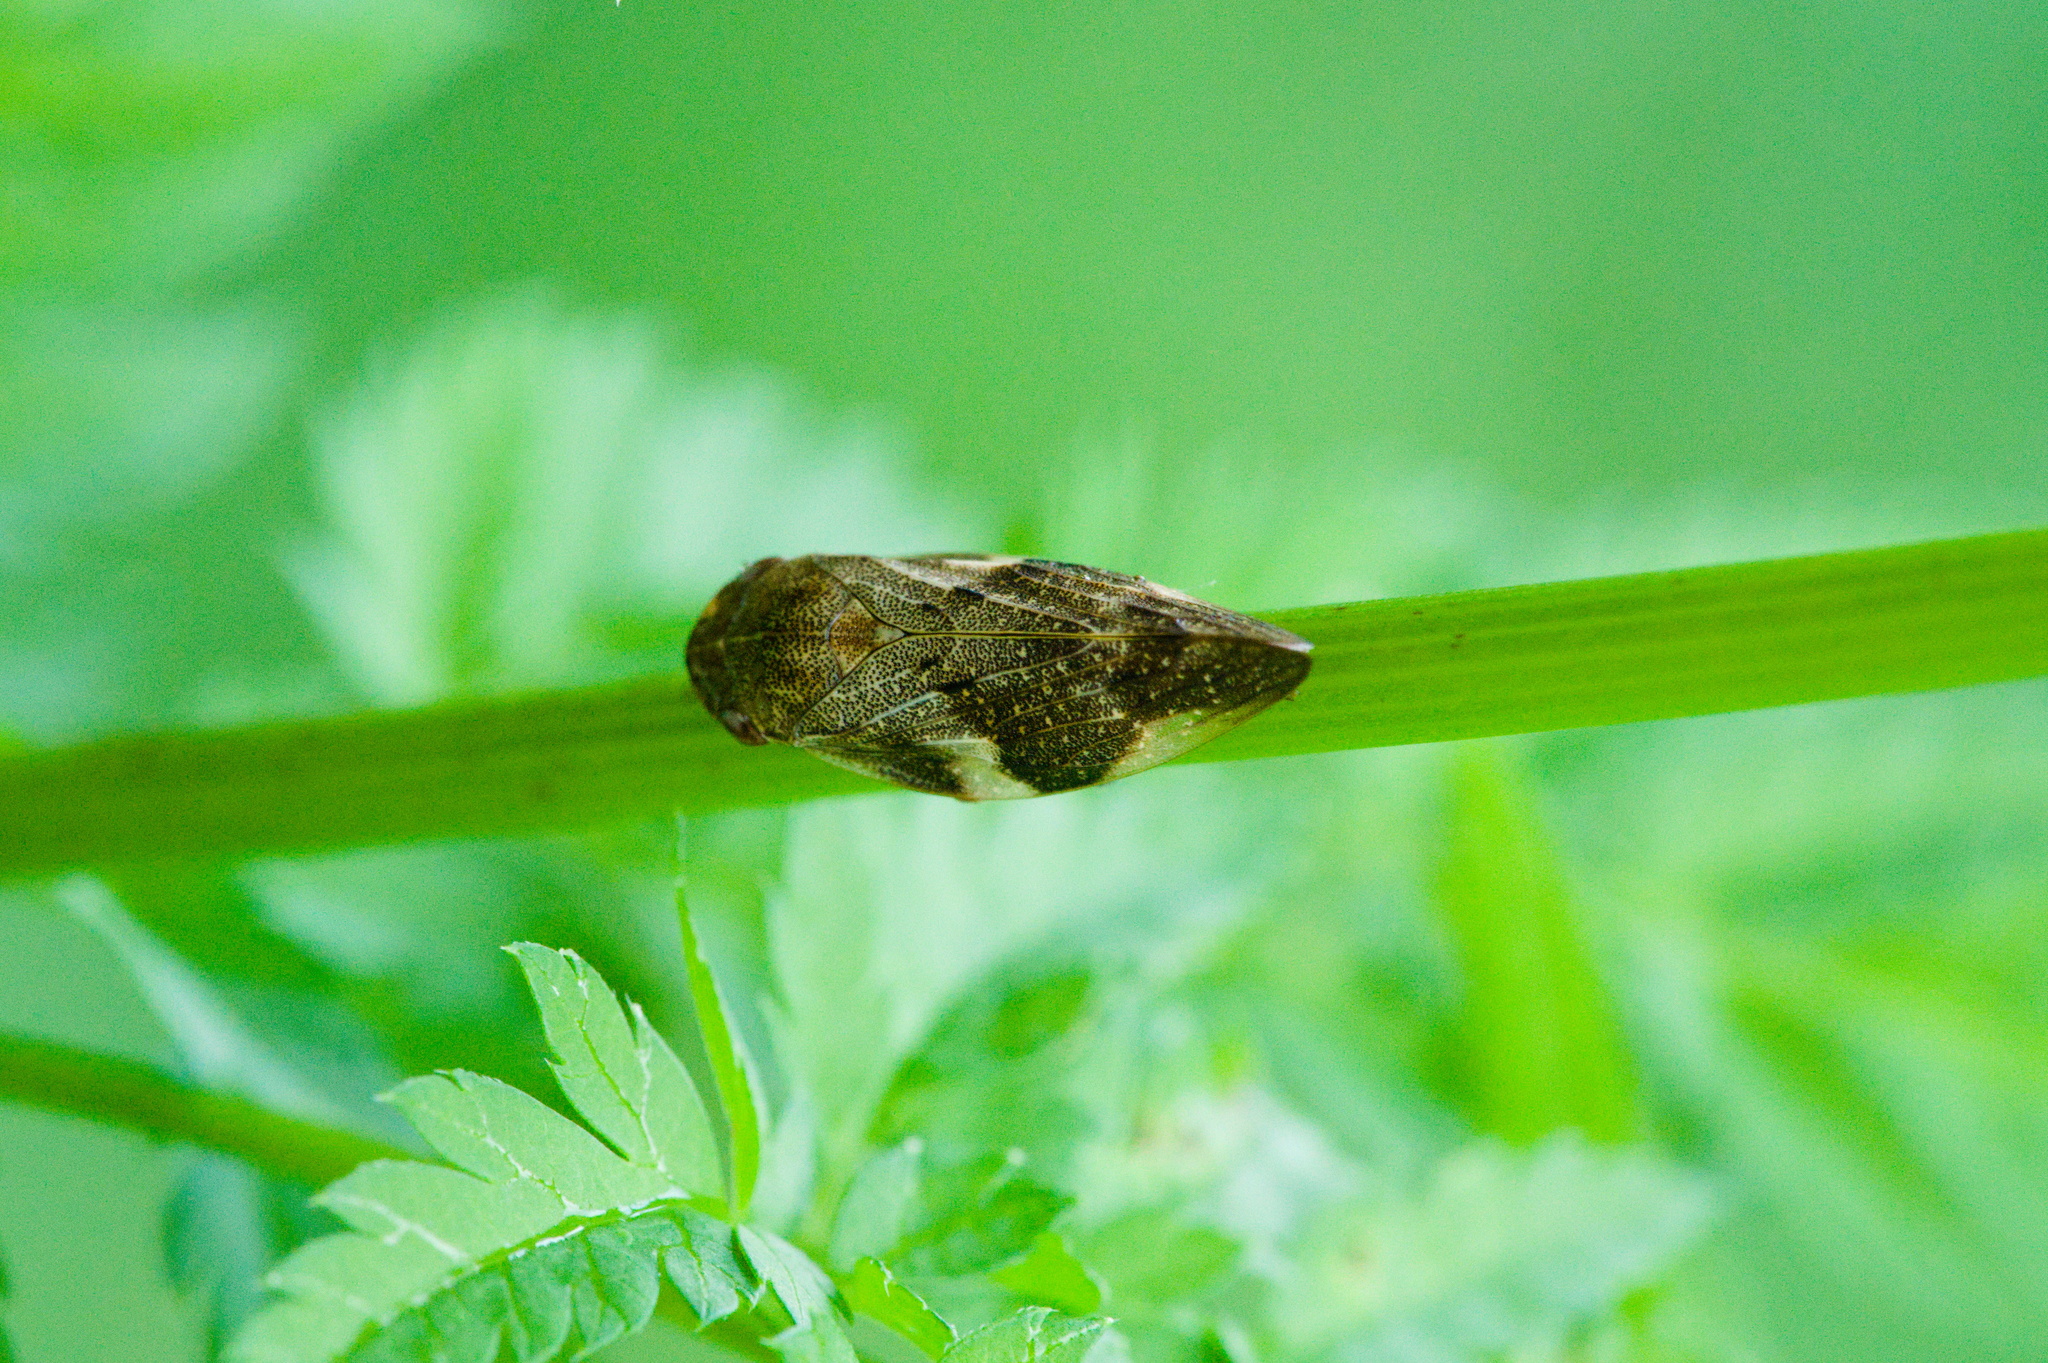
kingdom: Animalia
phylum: Arthropoda
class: Insecta
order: Hemiptera
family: Aphrophoridae
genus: Aphrophora
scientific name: Aphrophora alni
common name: European alder spittlebug
